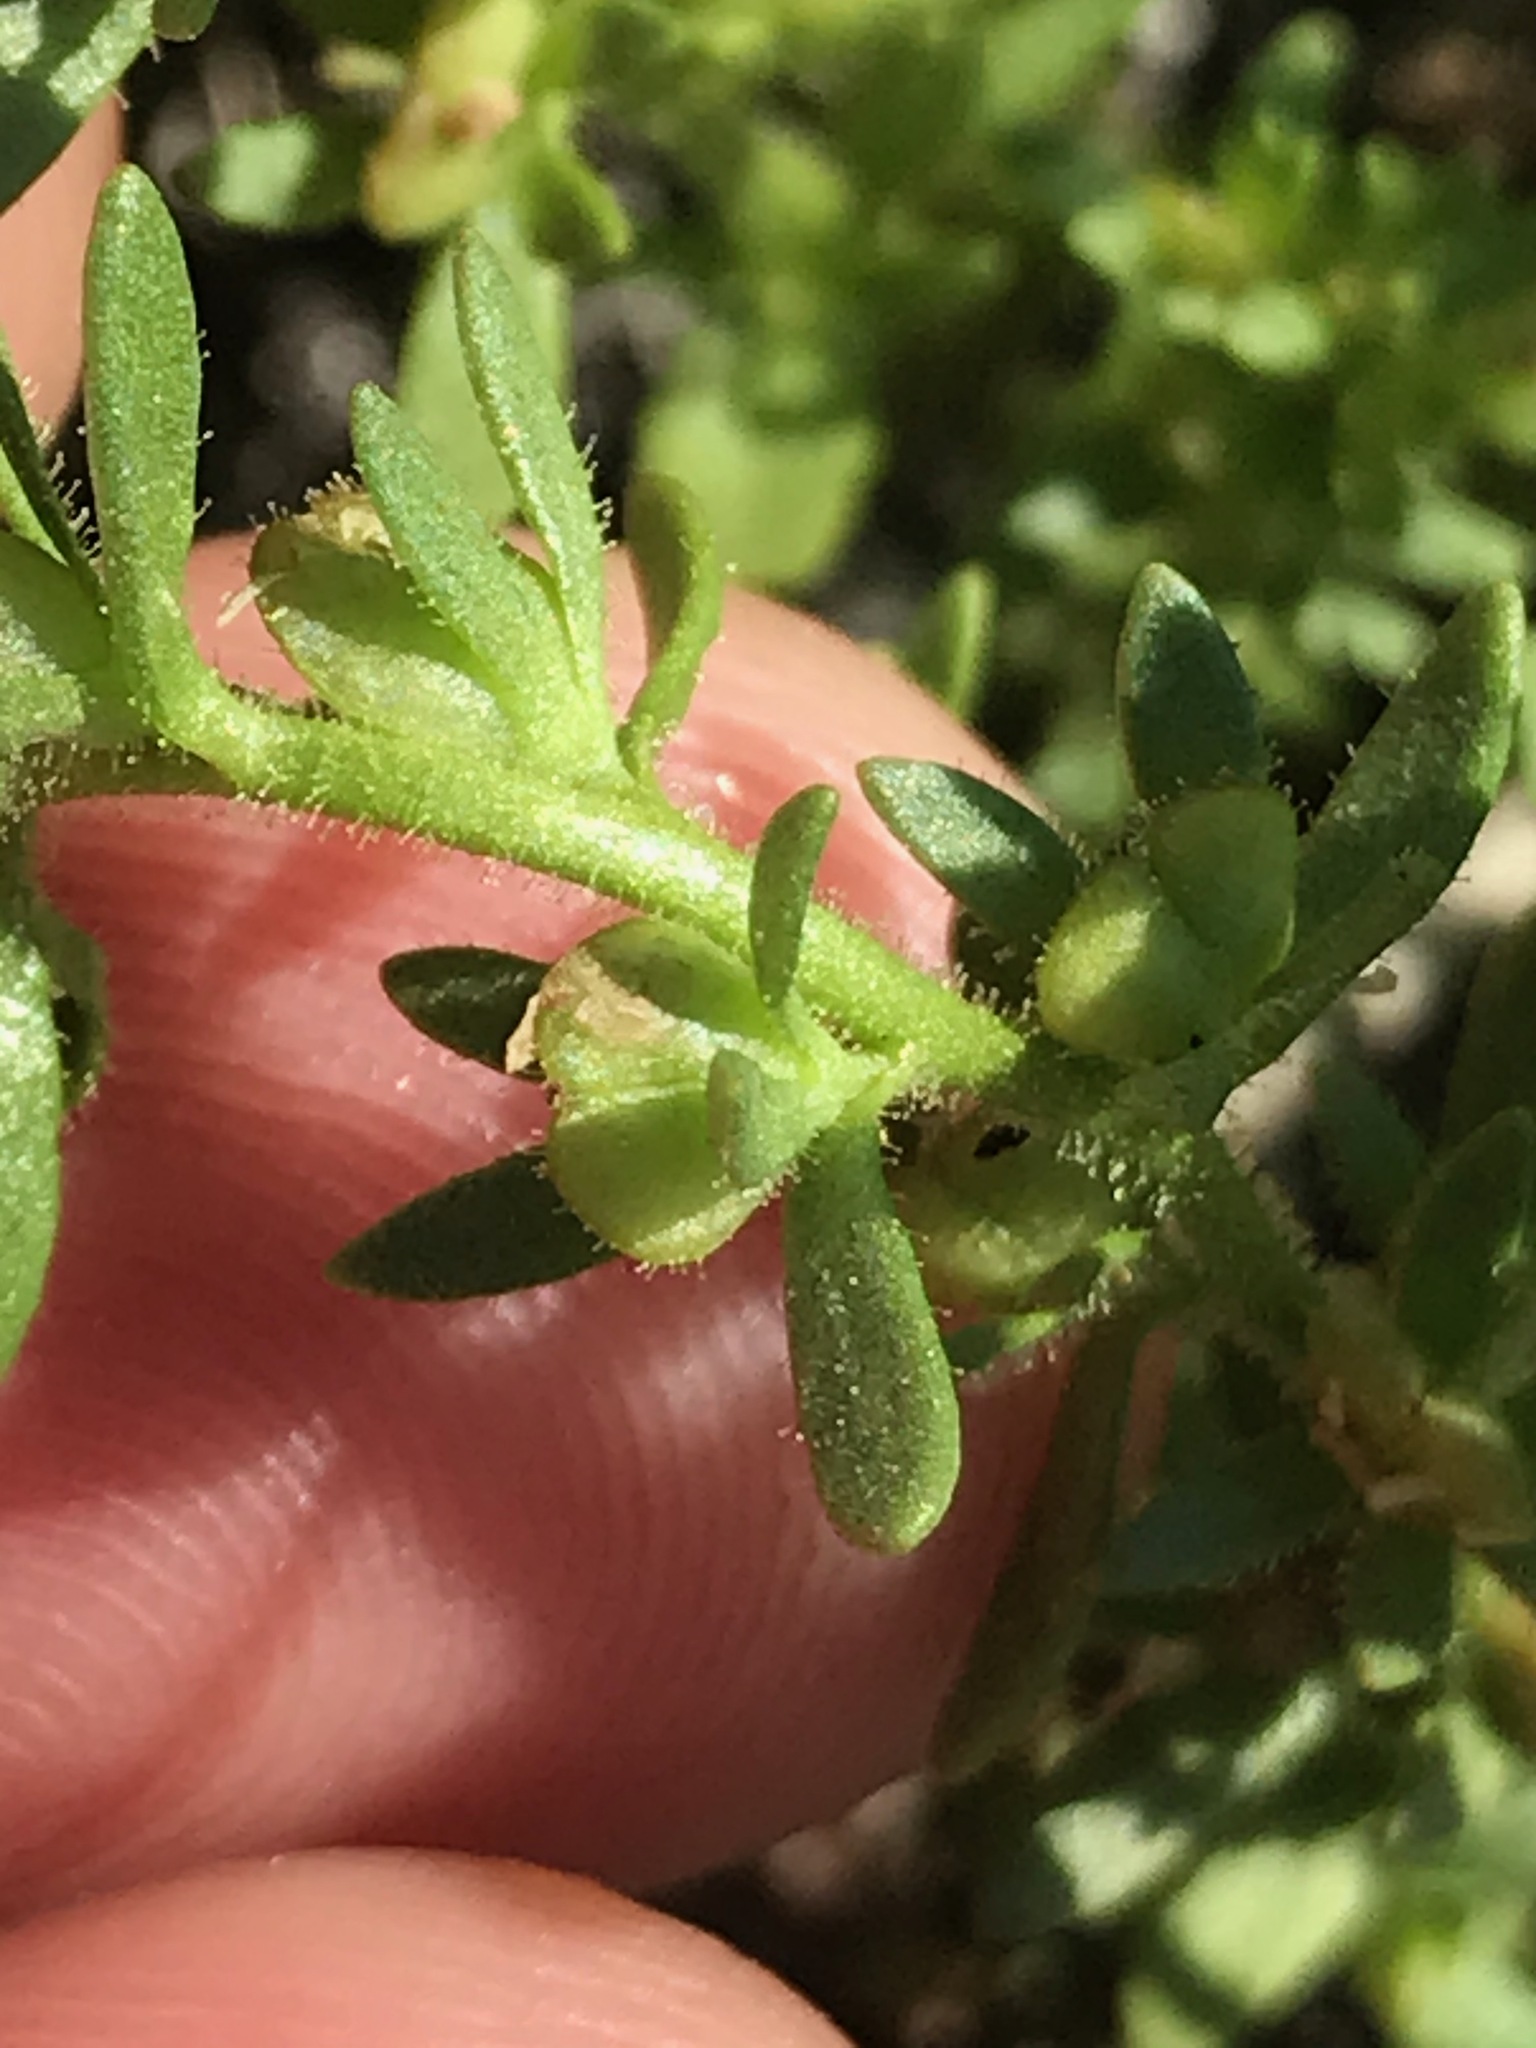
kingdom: Plantae
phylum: Tracheophyta
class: Magnoliopsida
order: Lamiales
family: Plantaginaceae
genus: Veronica
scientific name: Veronica peregrina
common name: Neckweed
